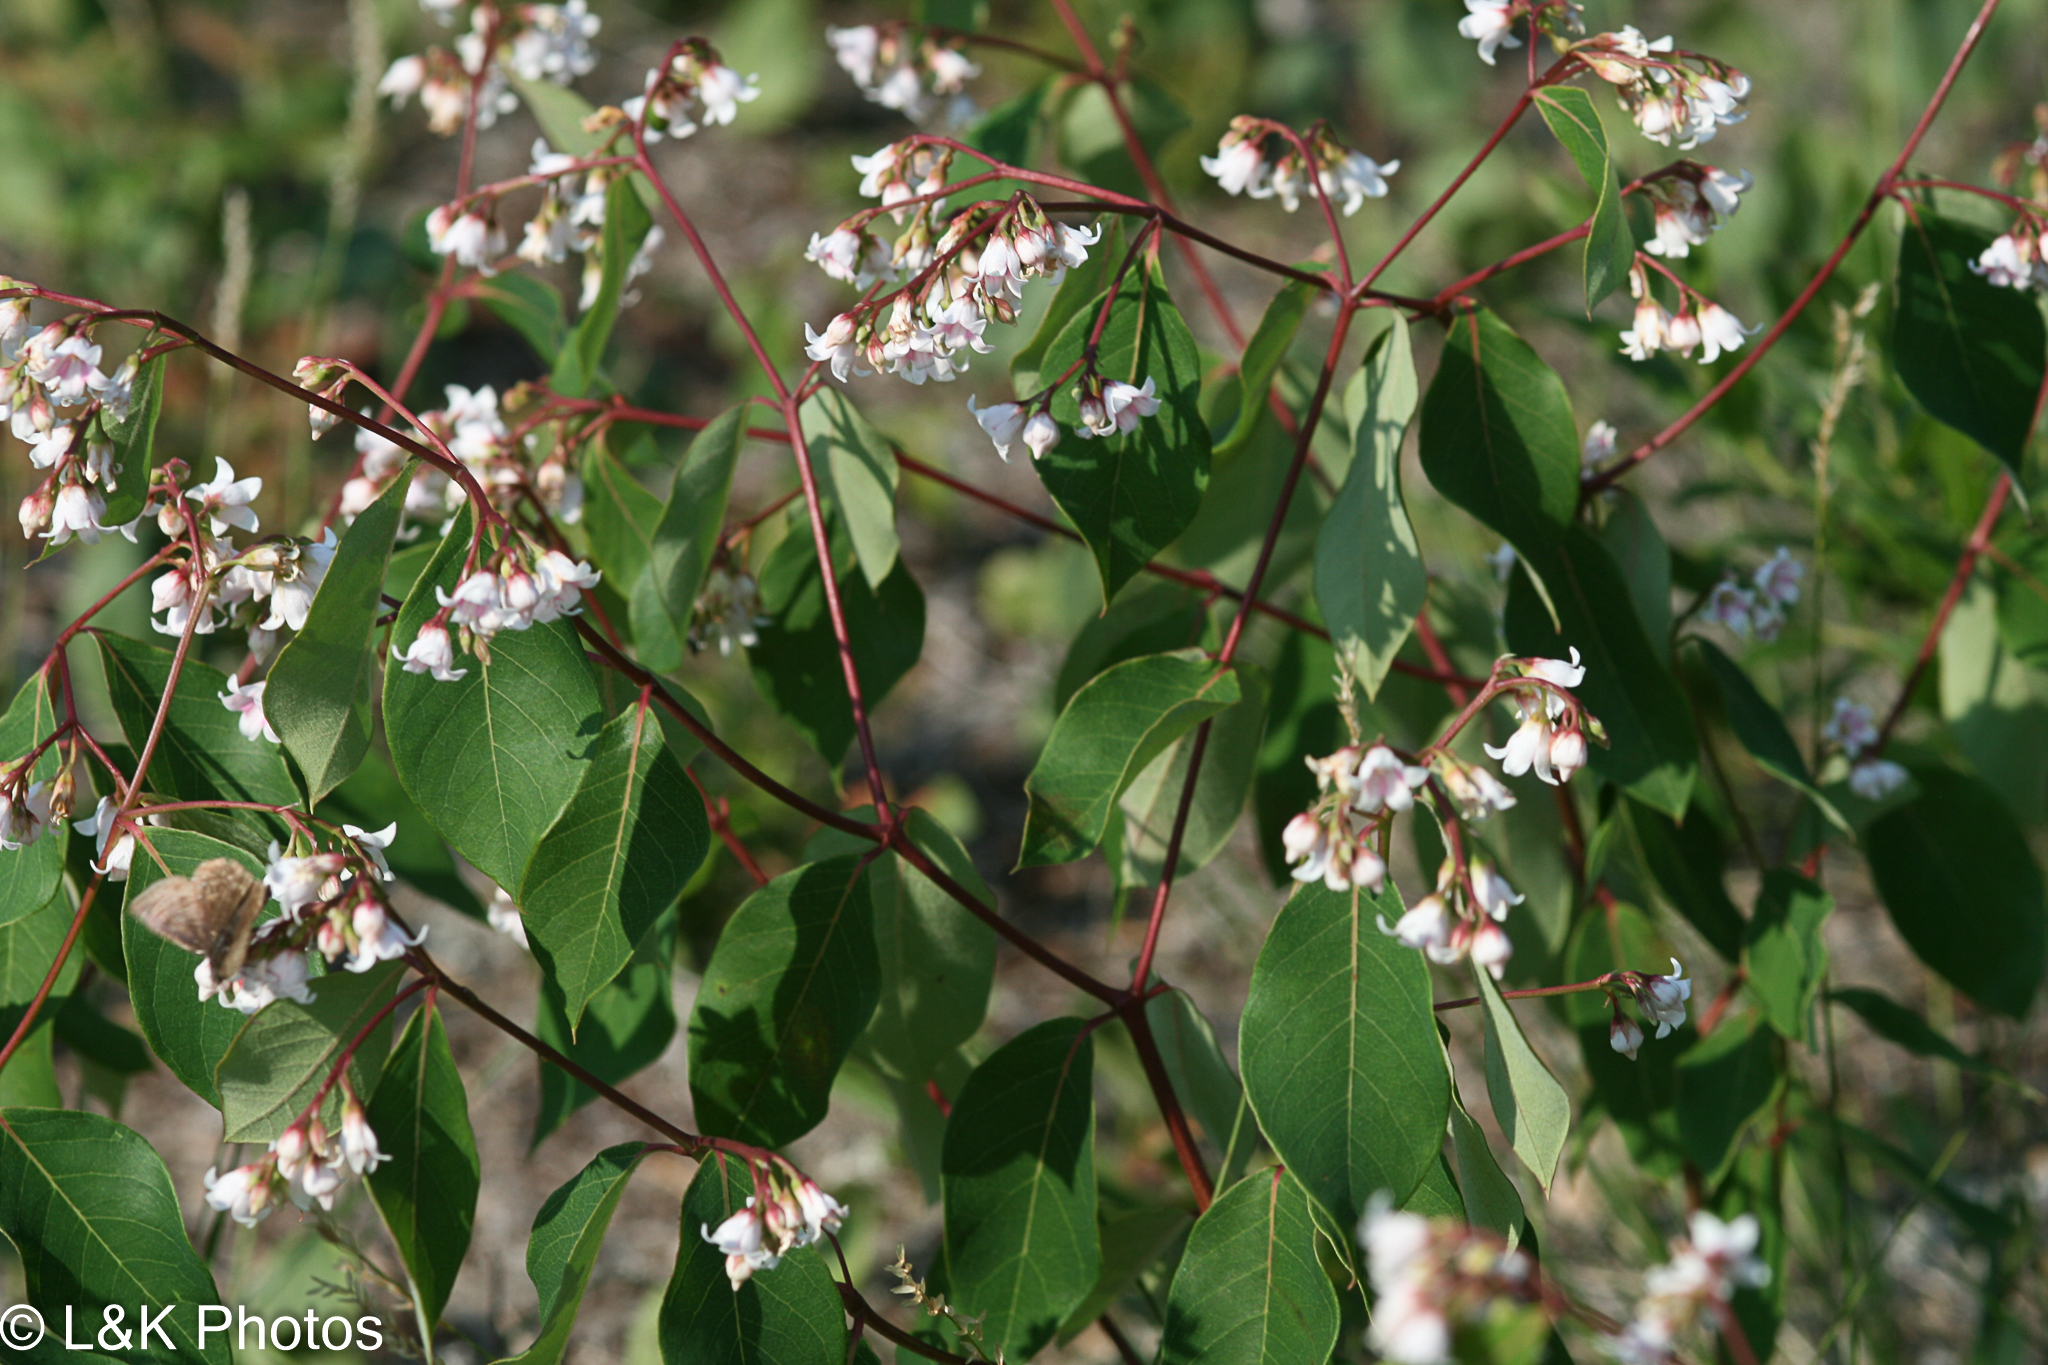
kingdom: Plantae
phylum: Tracheophyta
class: Magnoliopsida
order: Gentianales
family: Apocynaceae
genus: Apocynum
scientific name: Apocynum androsaemifolium
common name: Spreading dogbane
